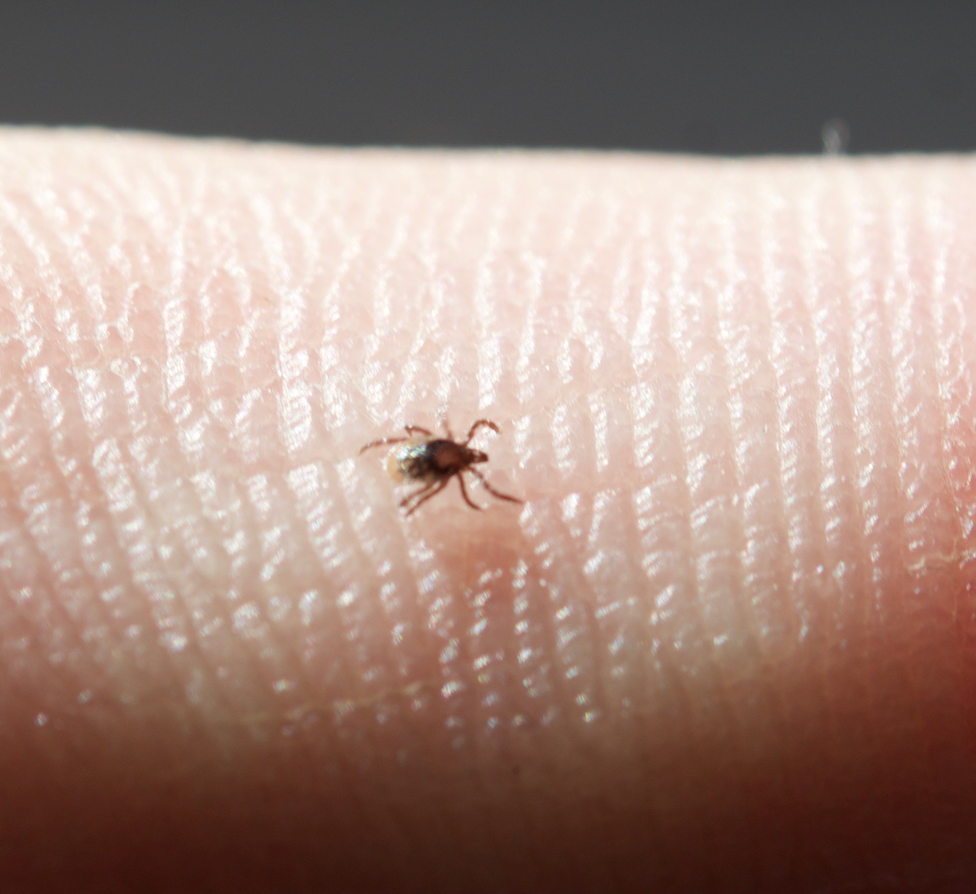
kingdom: Animalia
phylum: Arthropoda
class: Arachnida
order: Ixodida
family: Ixodidae
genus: Ixodes
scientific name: Ixodes ricinus
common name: Castor bean tick
